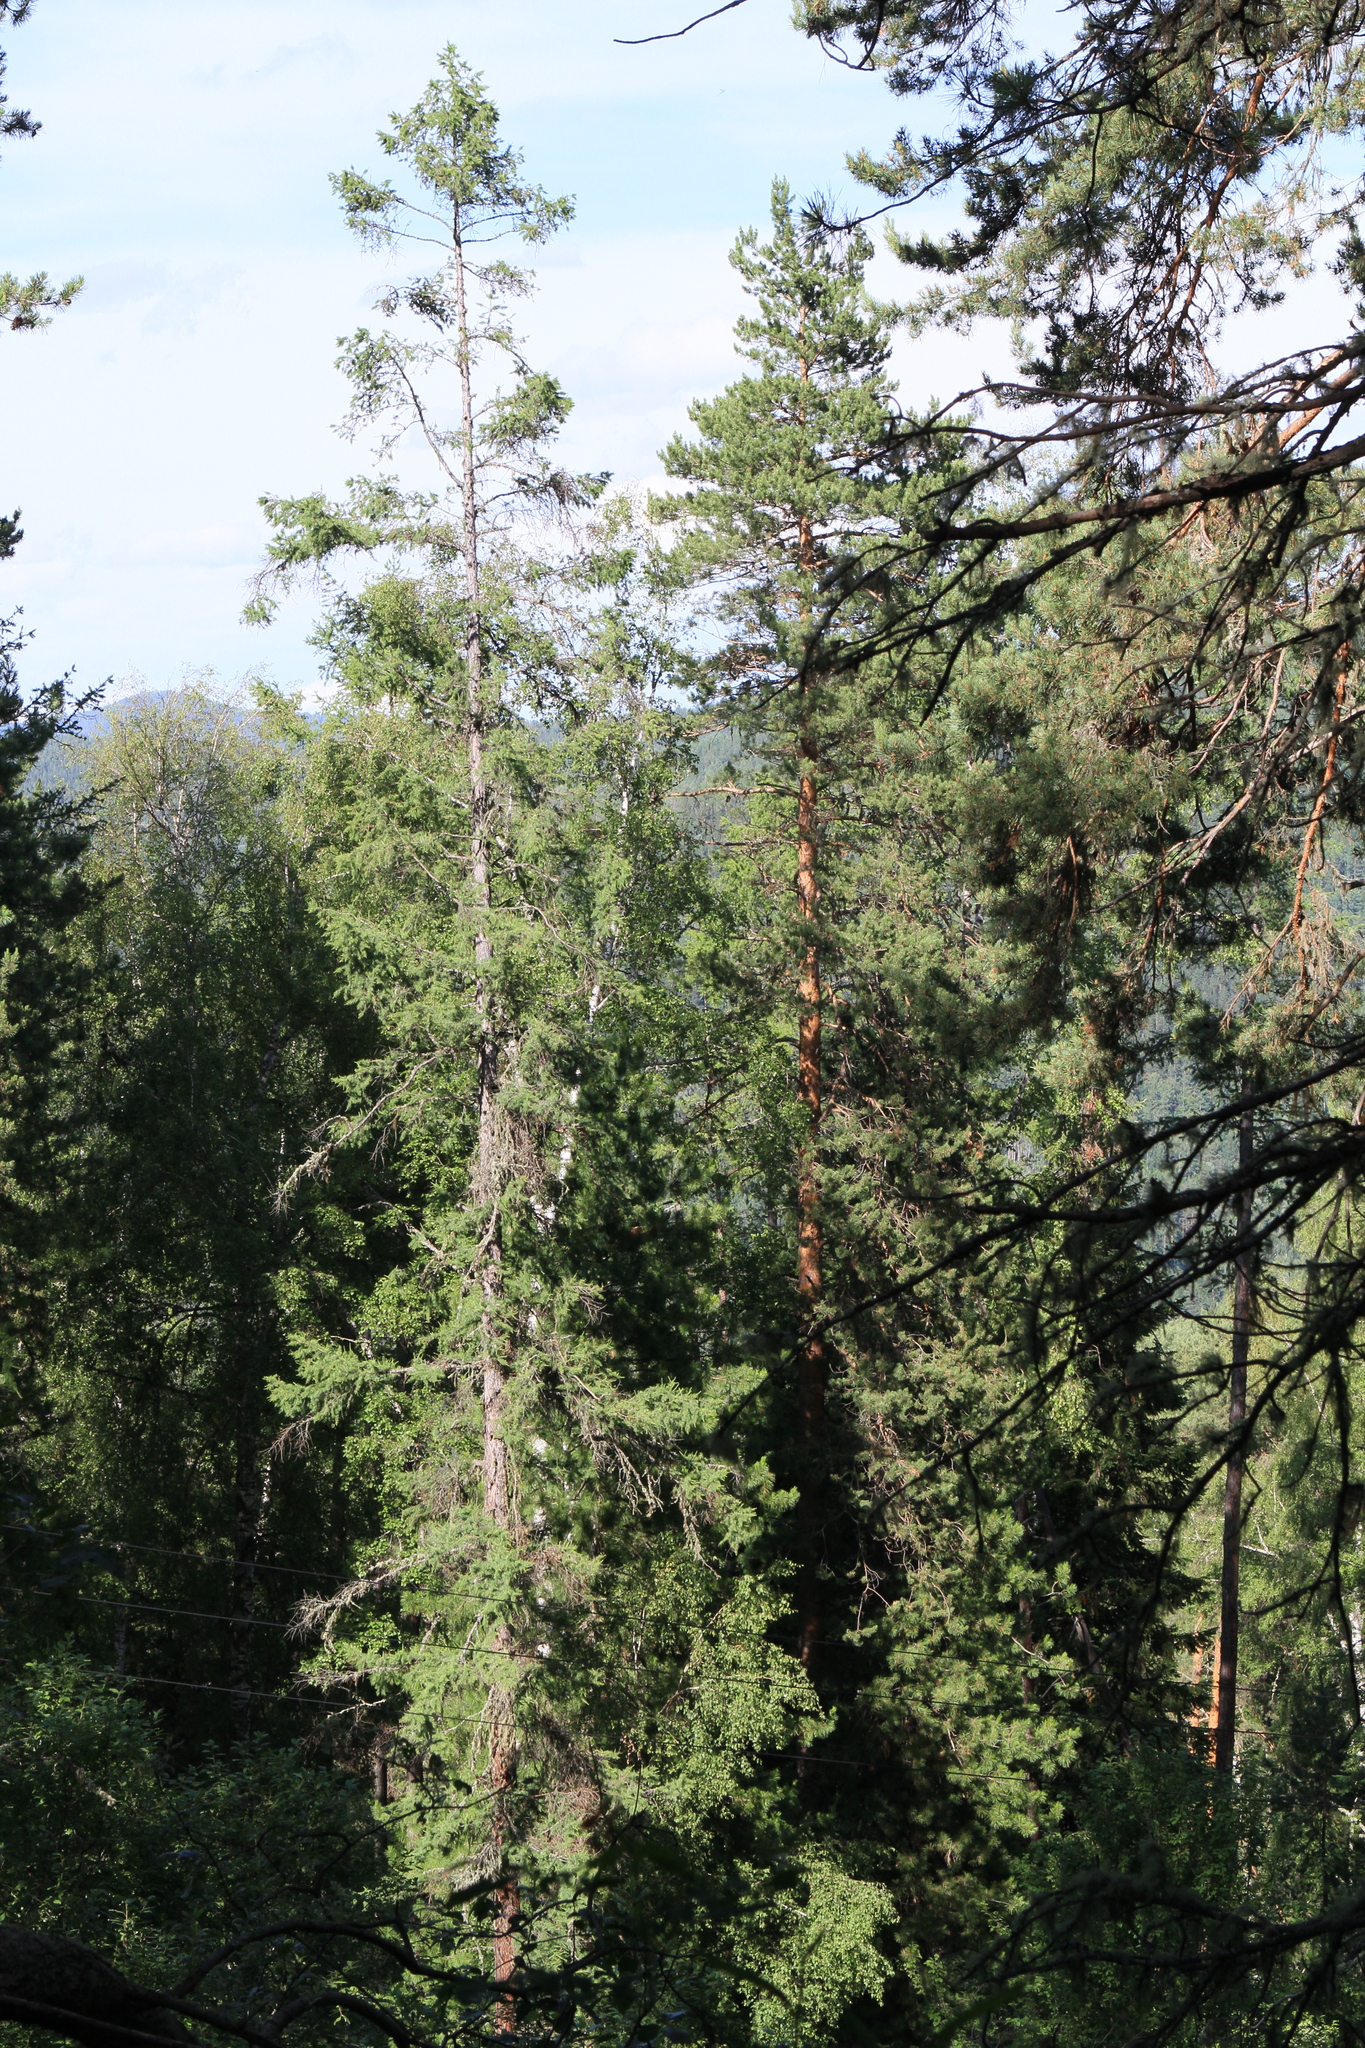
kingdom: Plantae
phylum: Tracheophyta
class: Pinopsida
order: Pinales
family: Pinaceae
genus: Larix
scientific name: Larix sibirica
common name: Siberian larch
